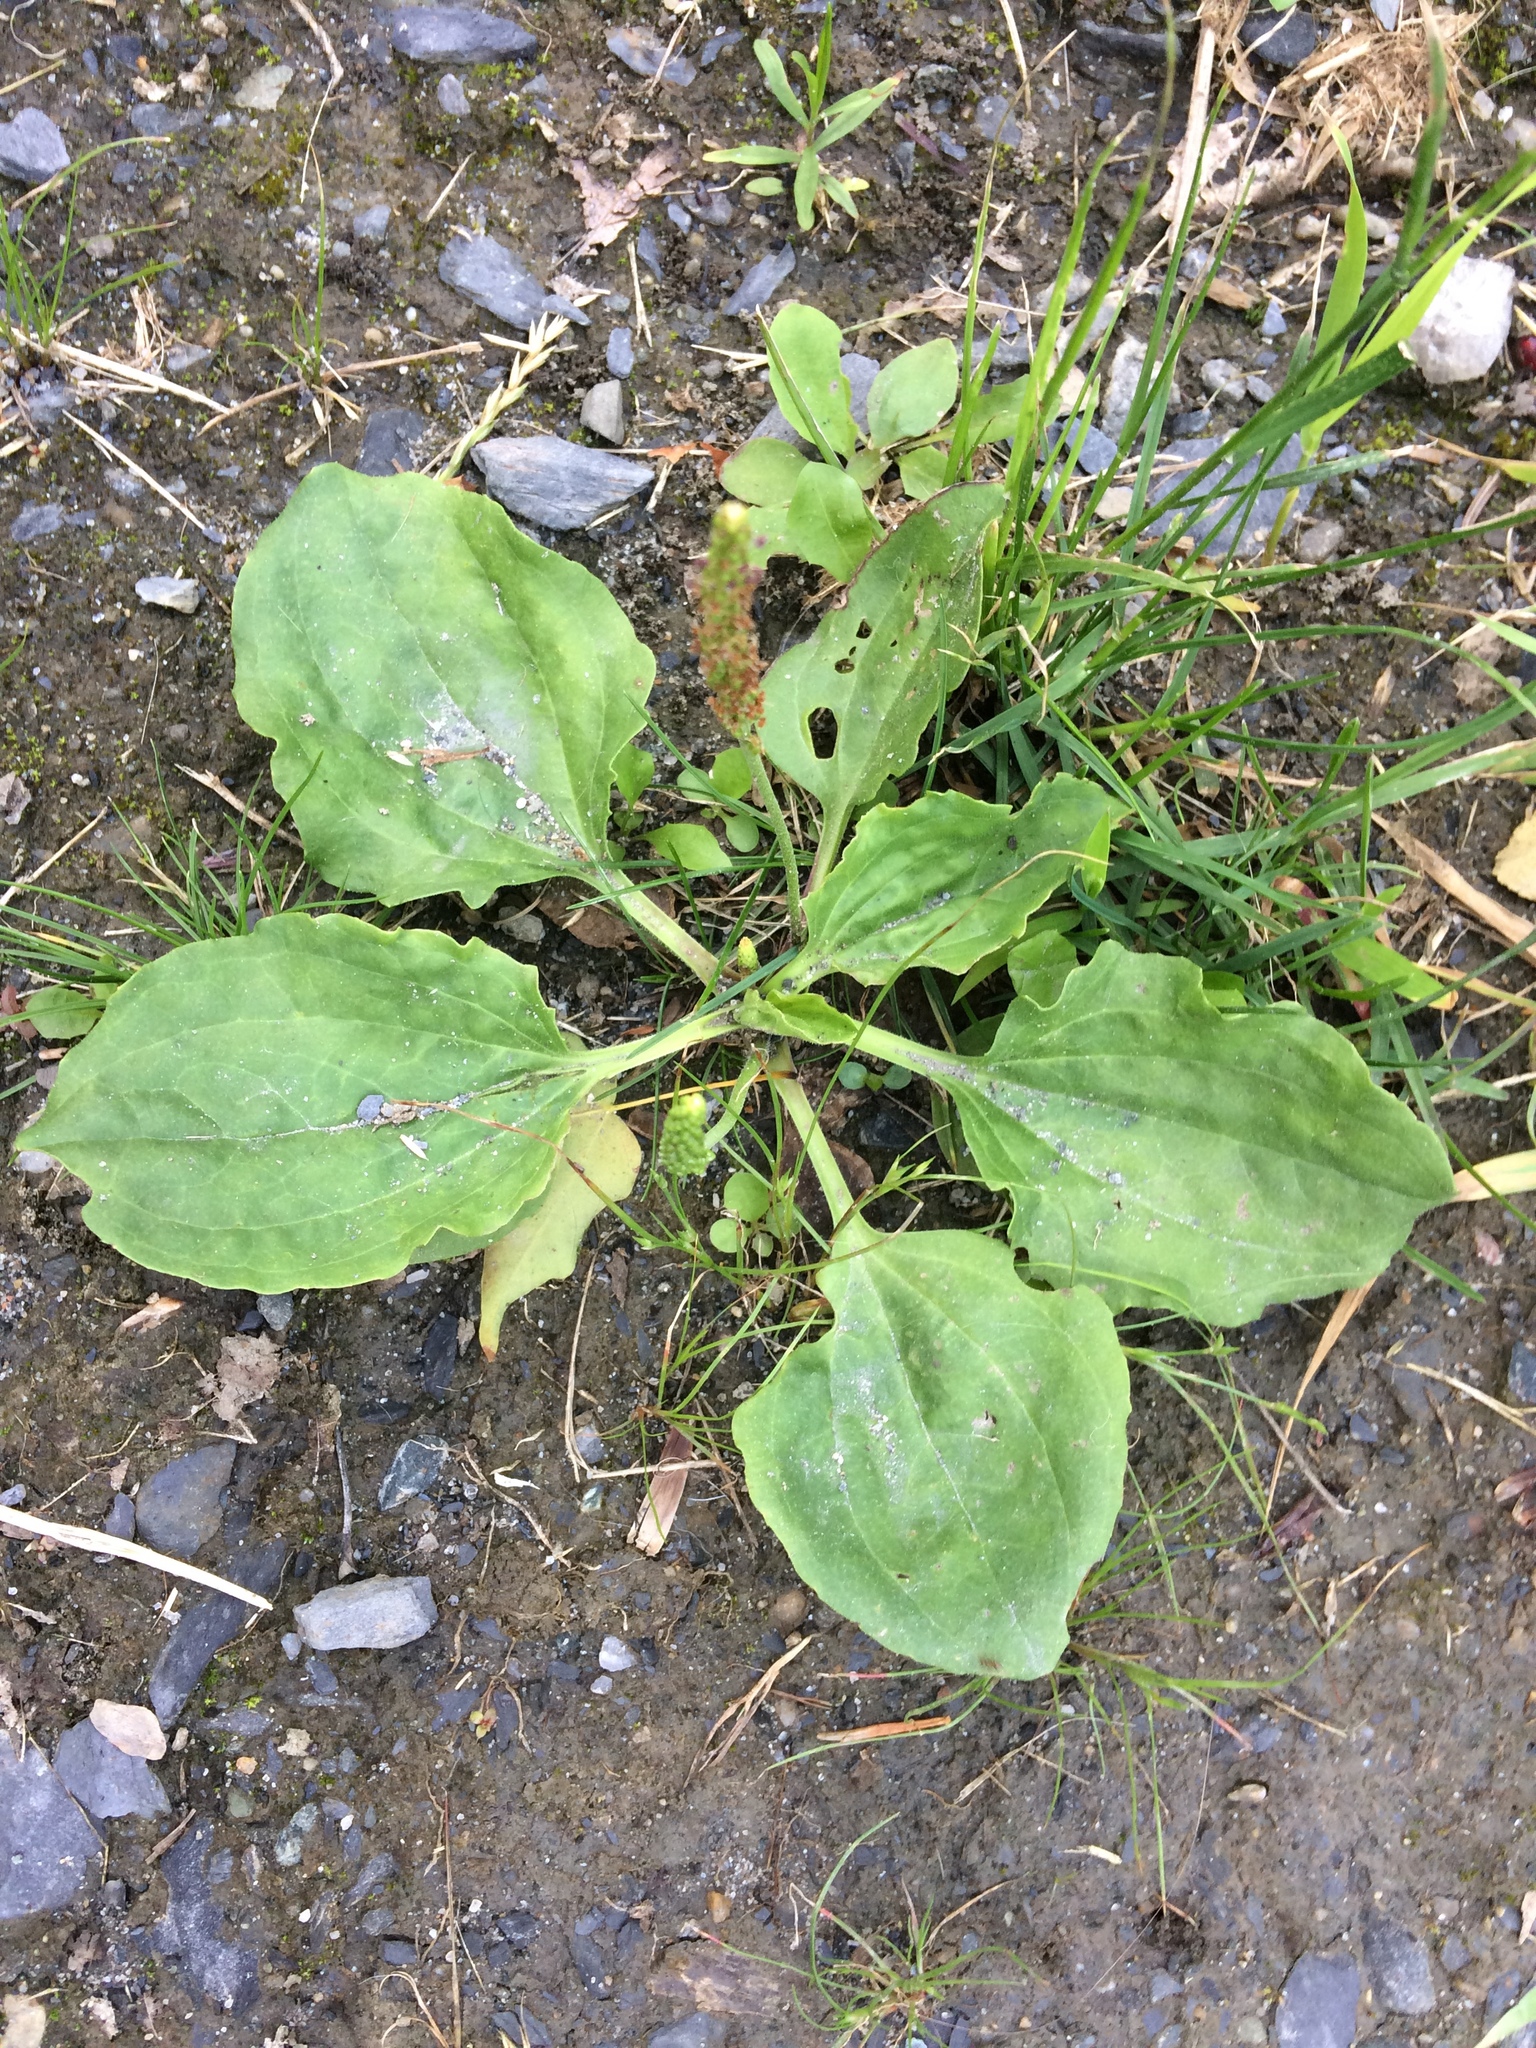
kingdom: Plantae
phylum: Tracheophyta
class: Magnoliopsida
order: Lamiales
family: Plantaginaceae
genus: Plantago
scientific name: Plantago major
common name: Common plantain
